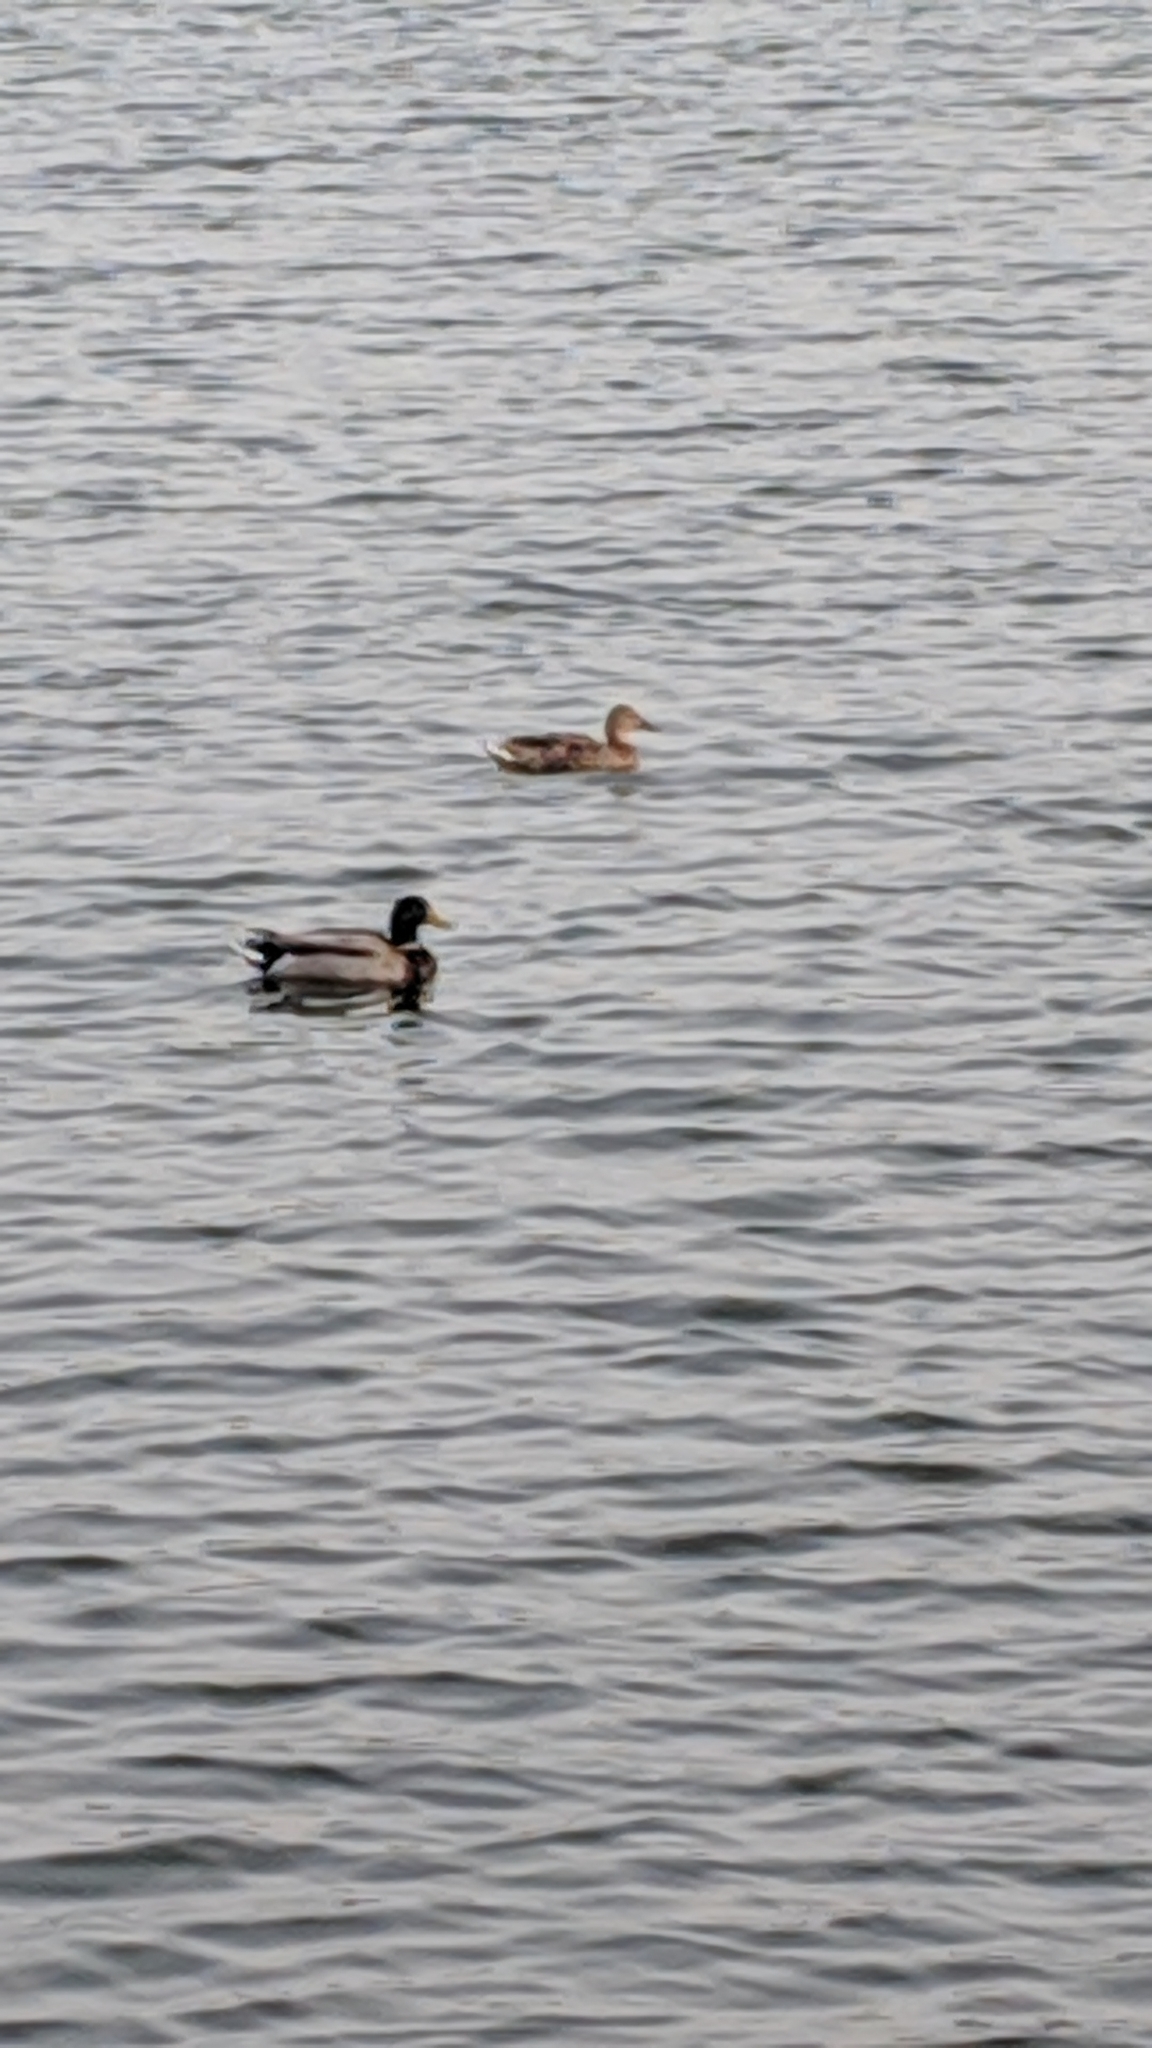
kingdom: Animalia
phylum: Chordata
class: Aves
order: Anseriformes
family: Anatidae
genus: Anas
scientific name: Anas platyrhynchos
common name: Mallard
